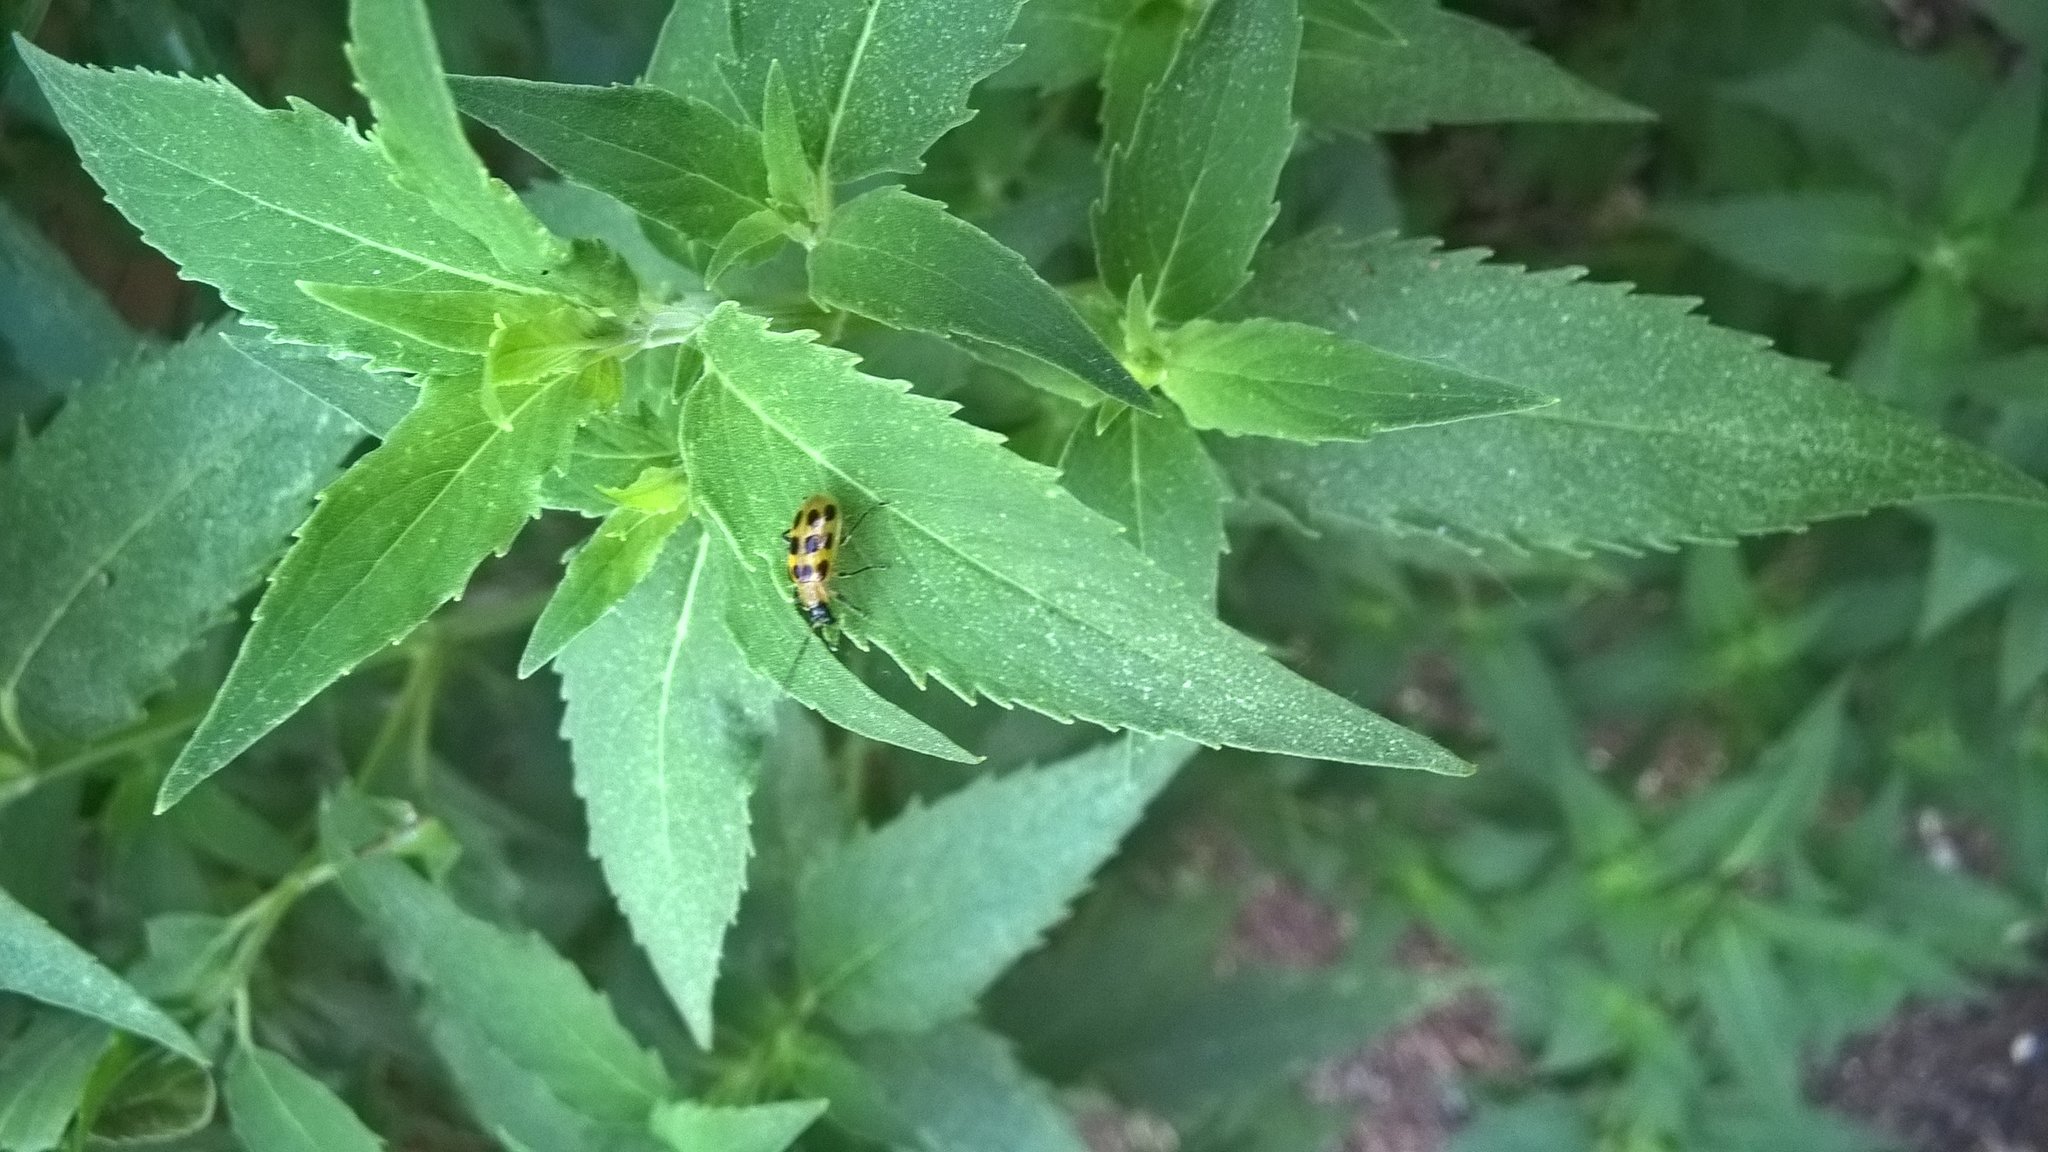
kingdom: Animalia
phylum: Arthropoda
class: Insecta
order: Coleoptera
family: Chrysomelidae
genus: Diabrotica
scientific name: Diabrotica undecimpunctata
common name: Spotted cucumber beetle
